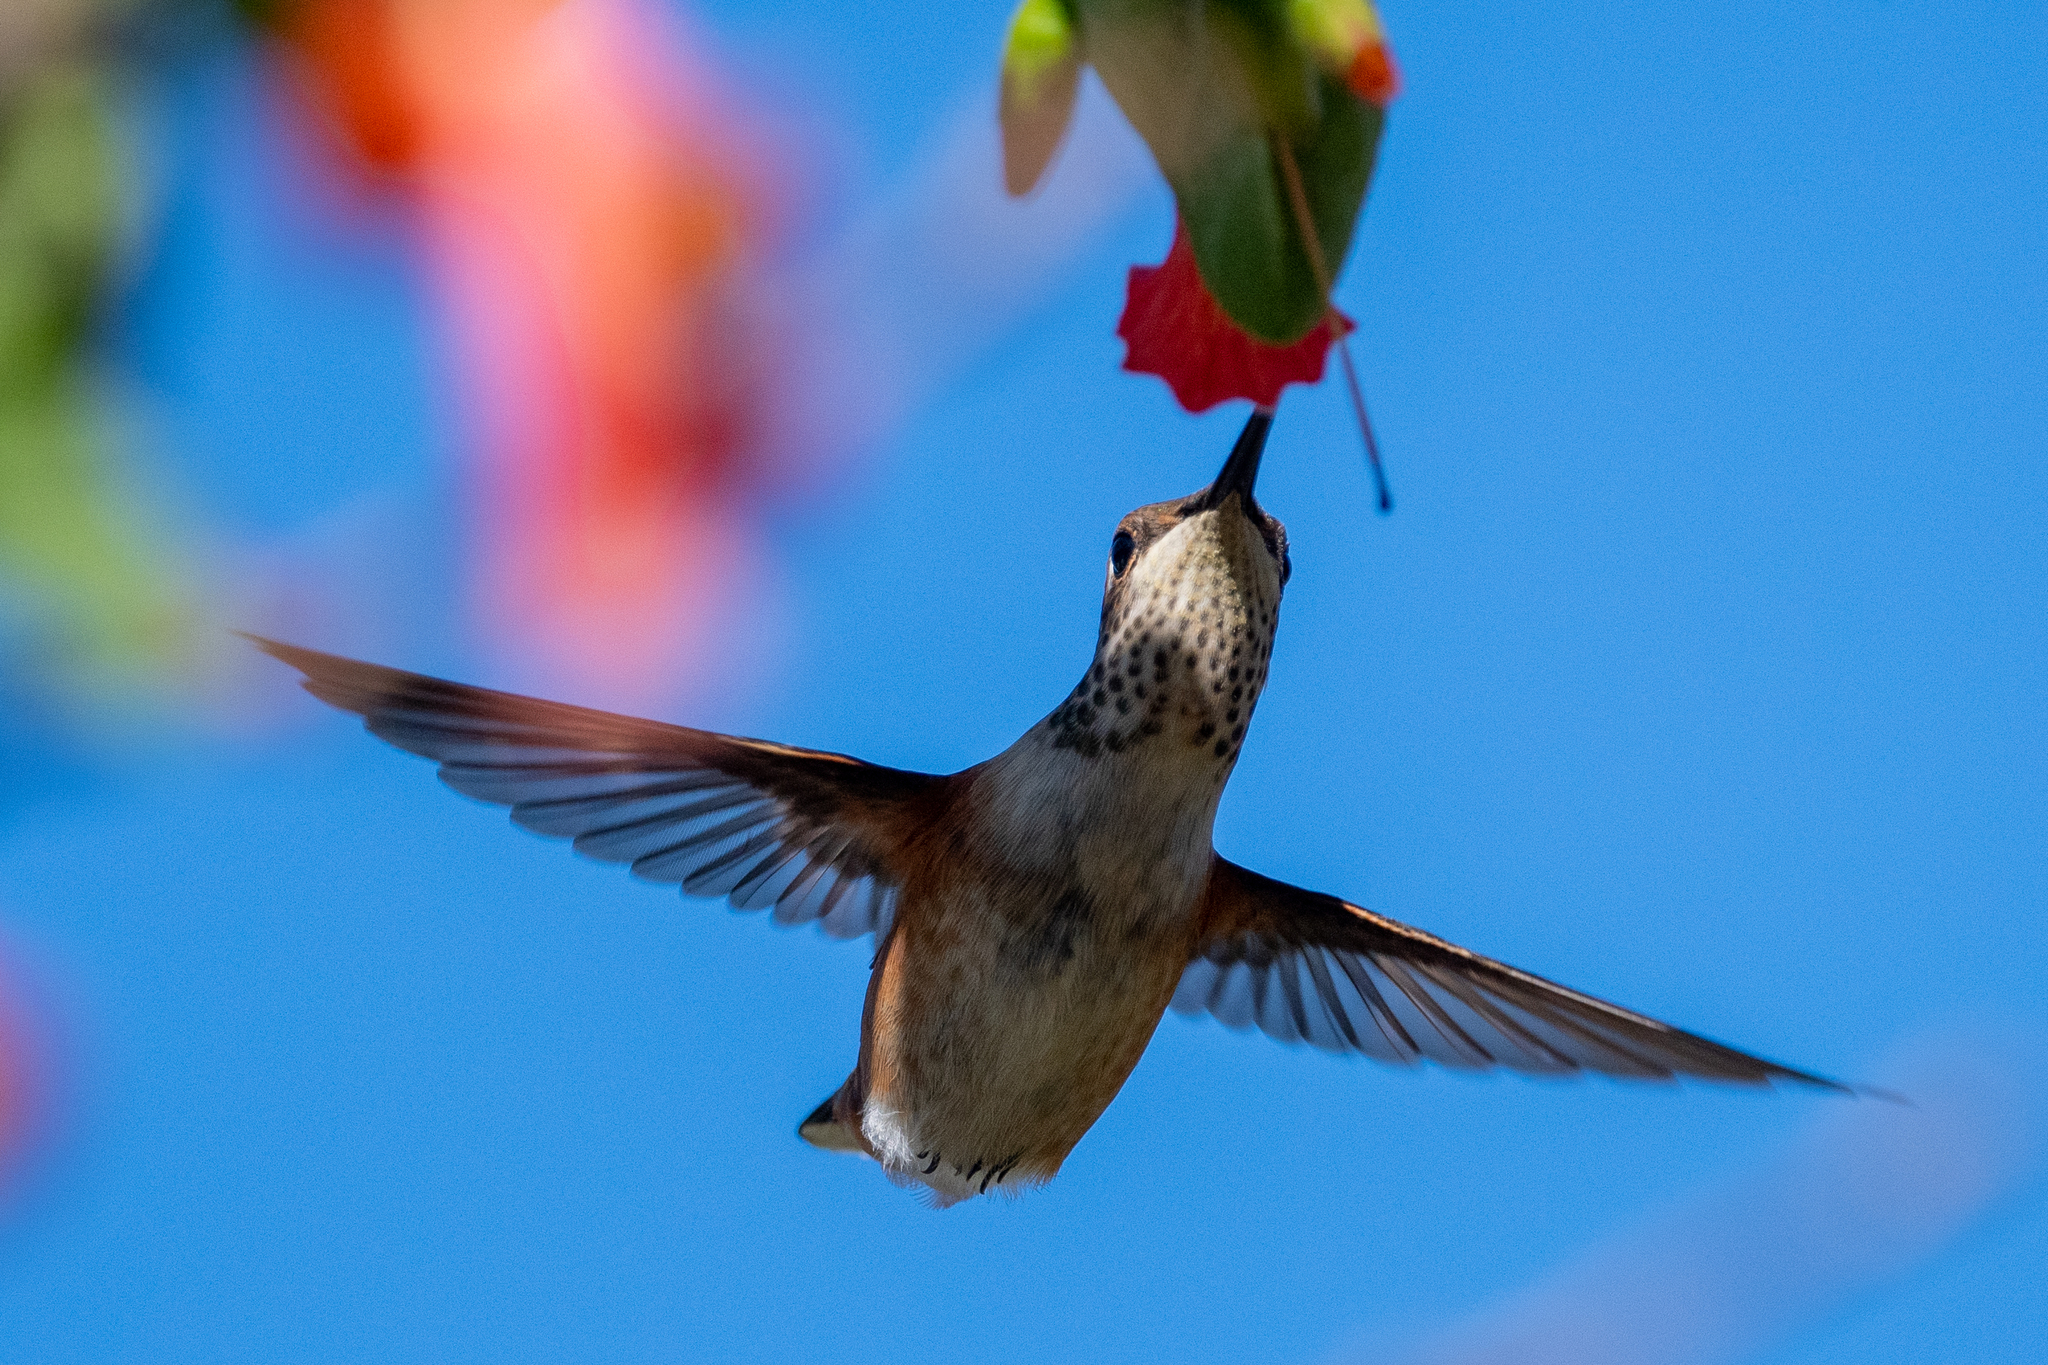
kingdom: Animalia
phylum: Chordata
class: Aves
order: Apodiformes
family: Trochilidae
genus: Selasphorus
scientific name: Selasphorus
